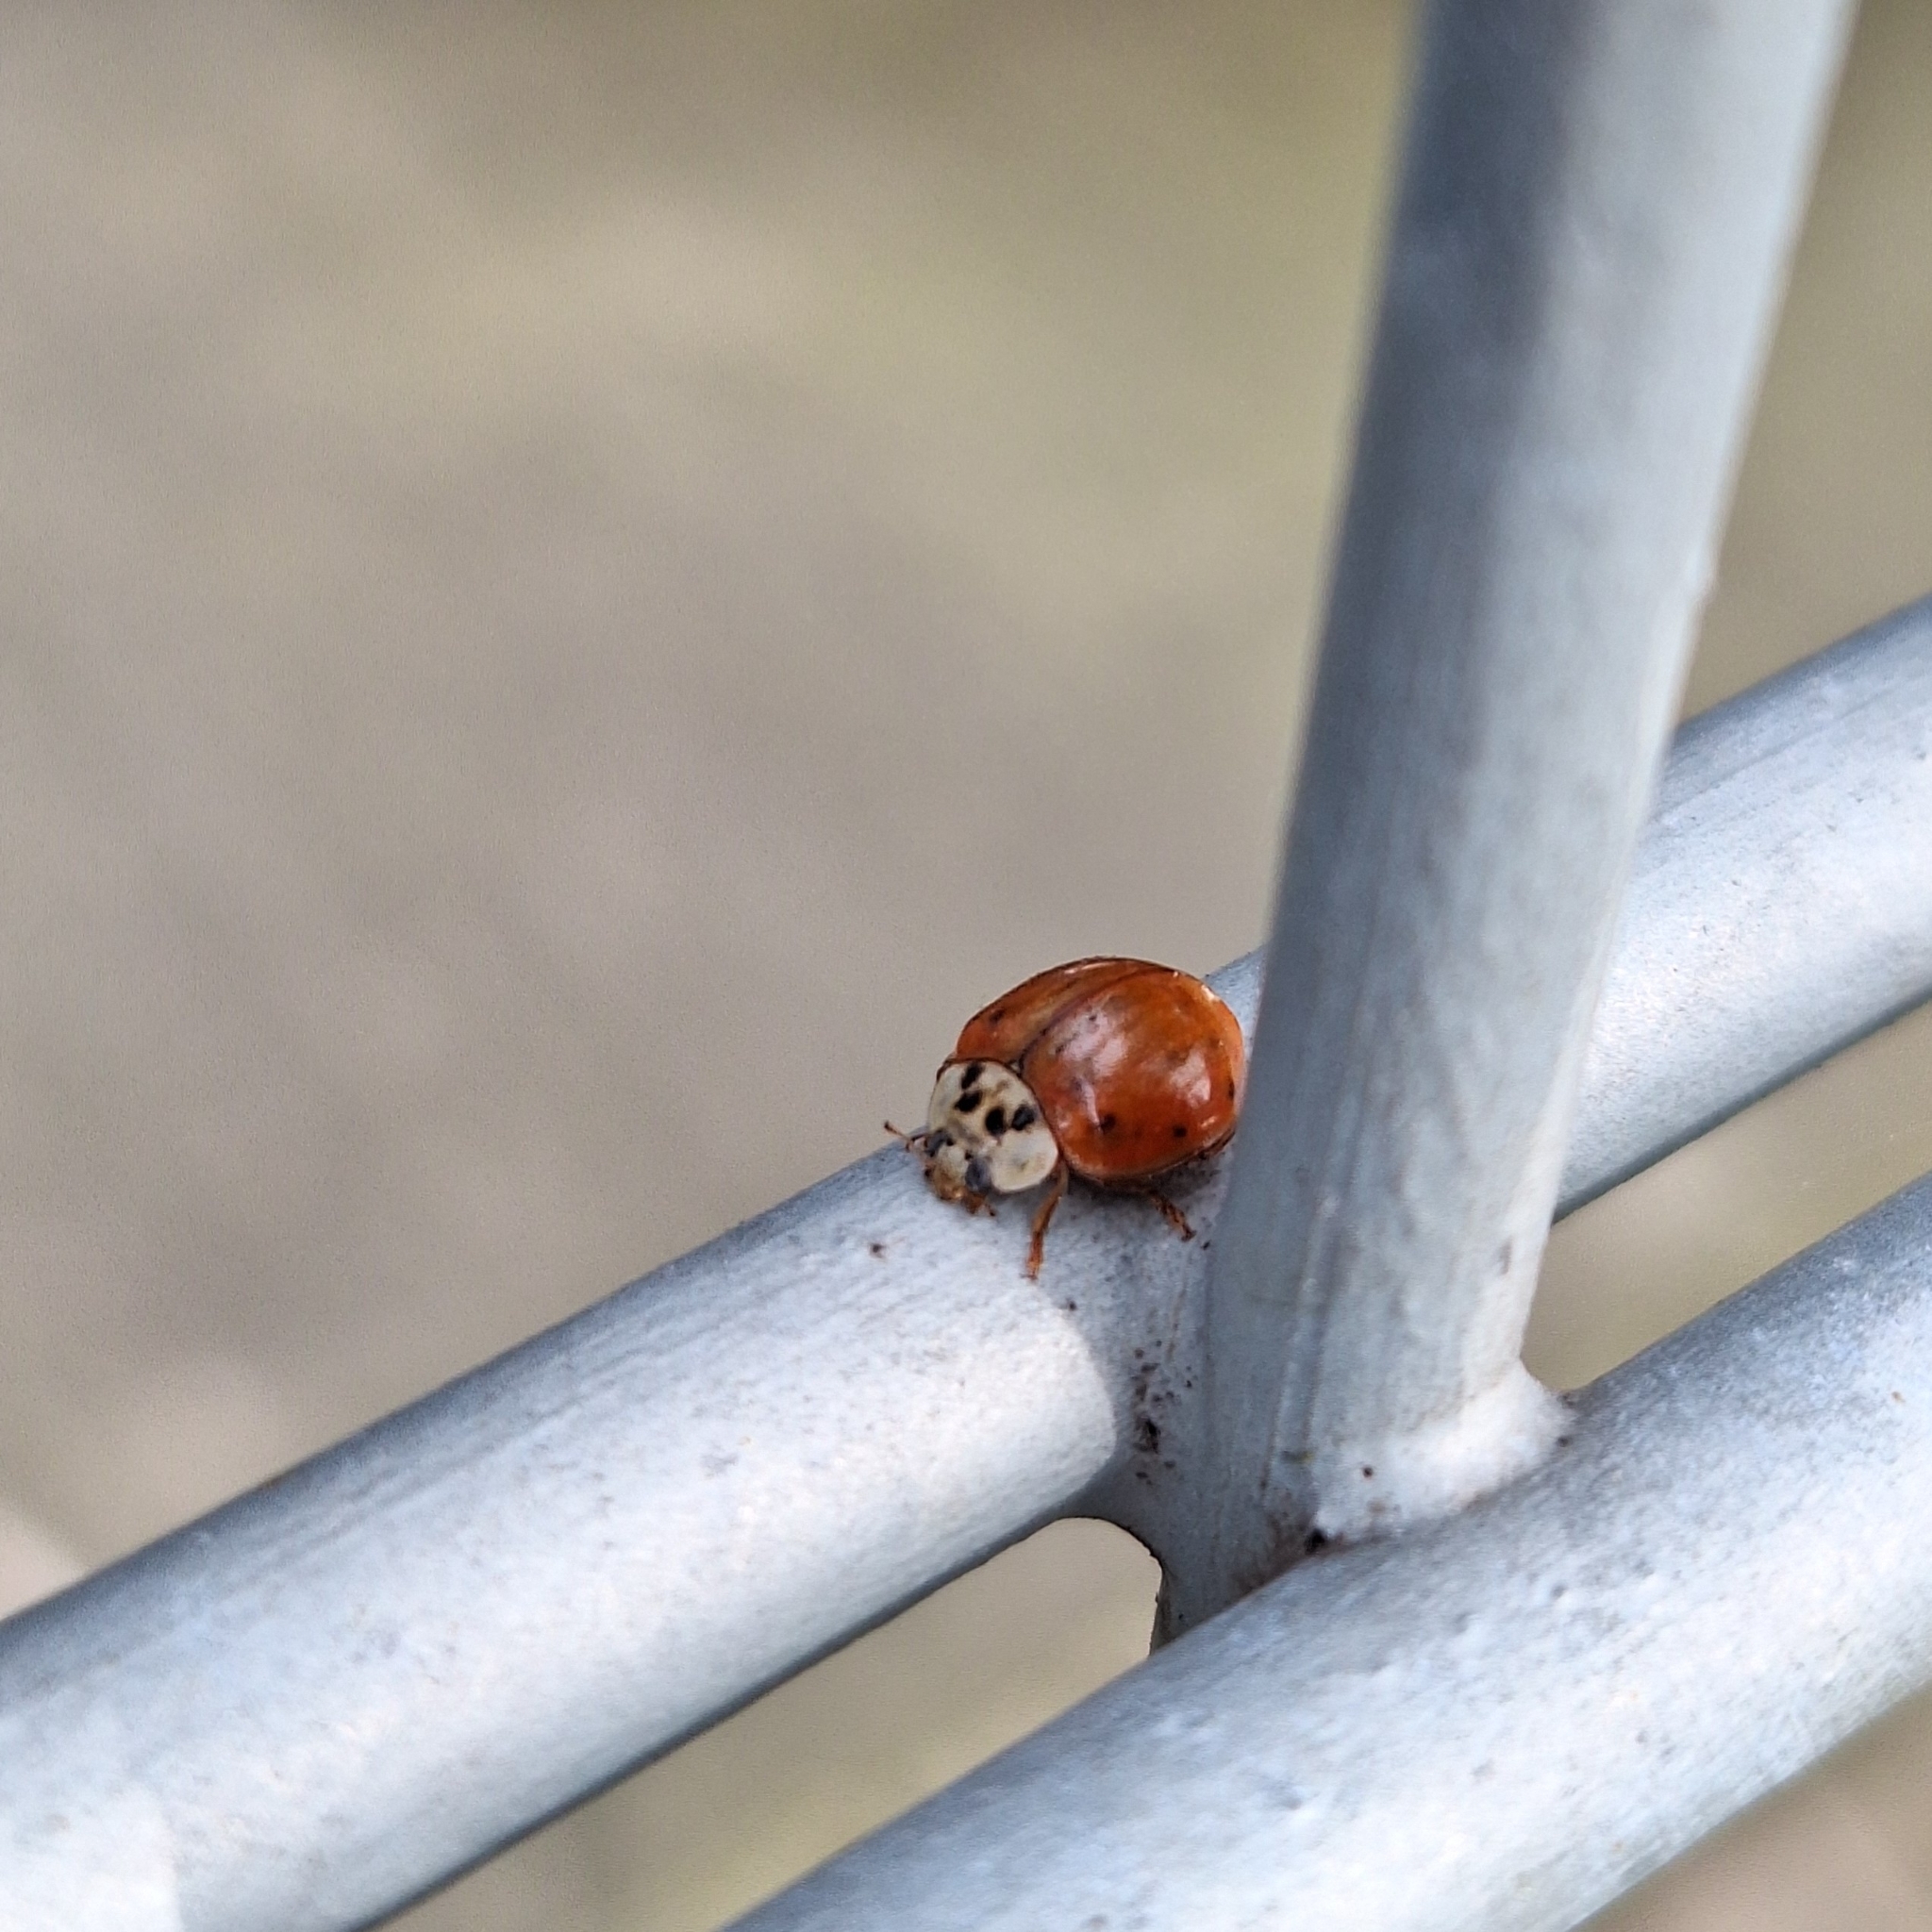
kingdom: Animalia
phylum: Arthropoda
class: Insecta
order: Coleoptera
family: Coccinellidae
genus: Harmonia
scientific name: Harmonia axyridis
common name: Harlequin ladybird
